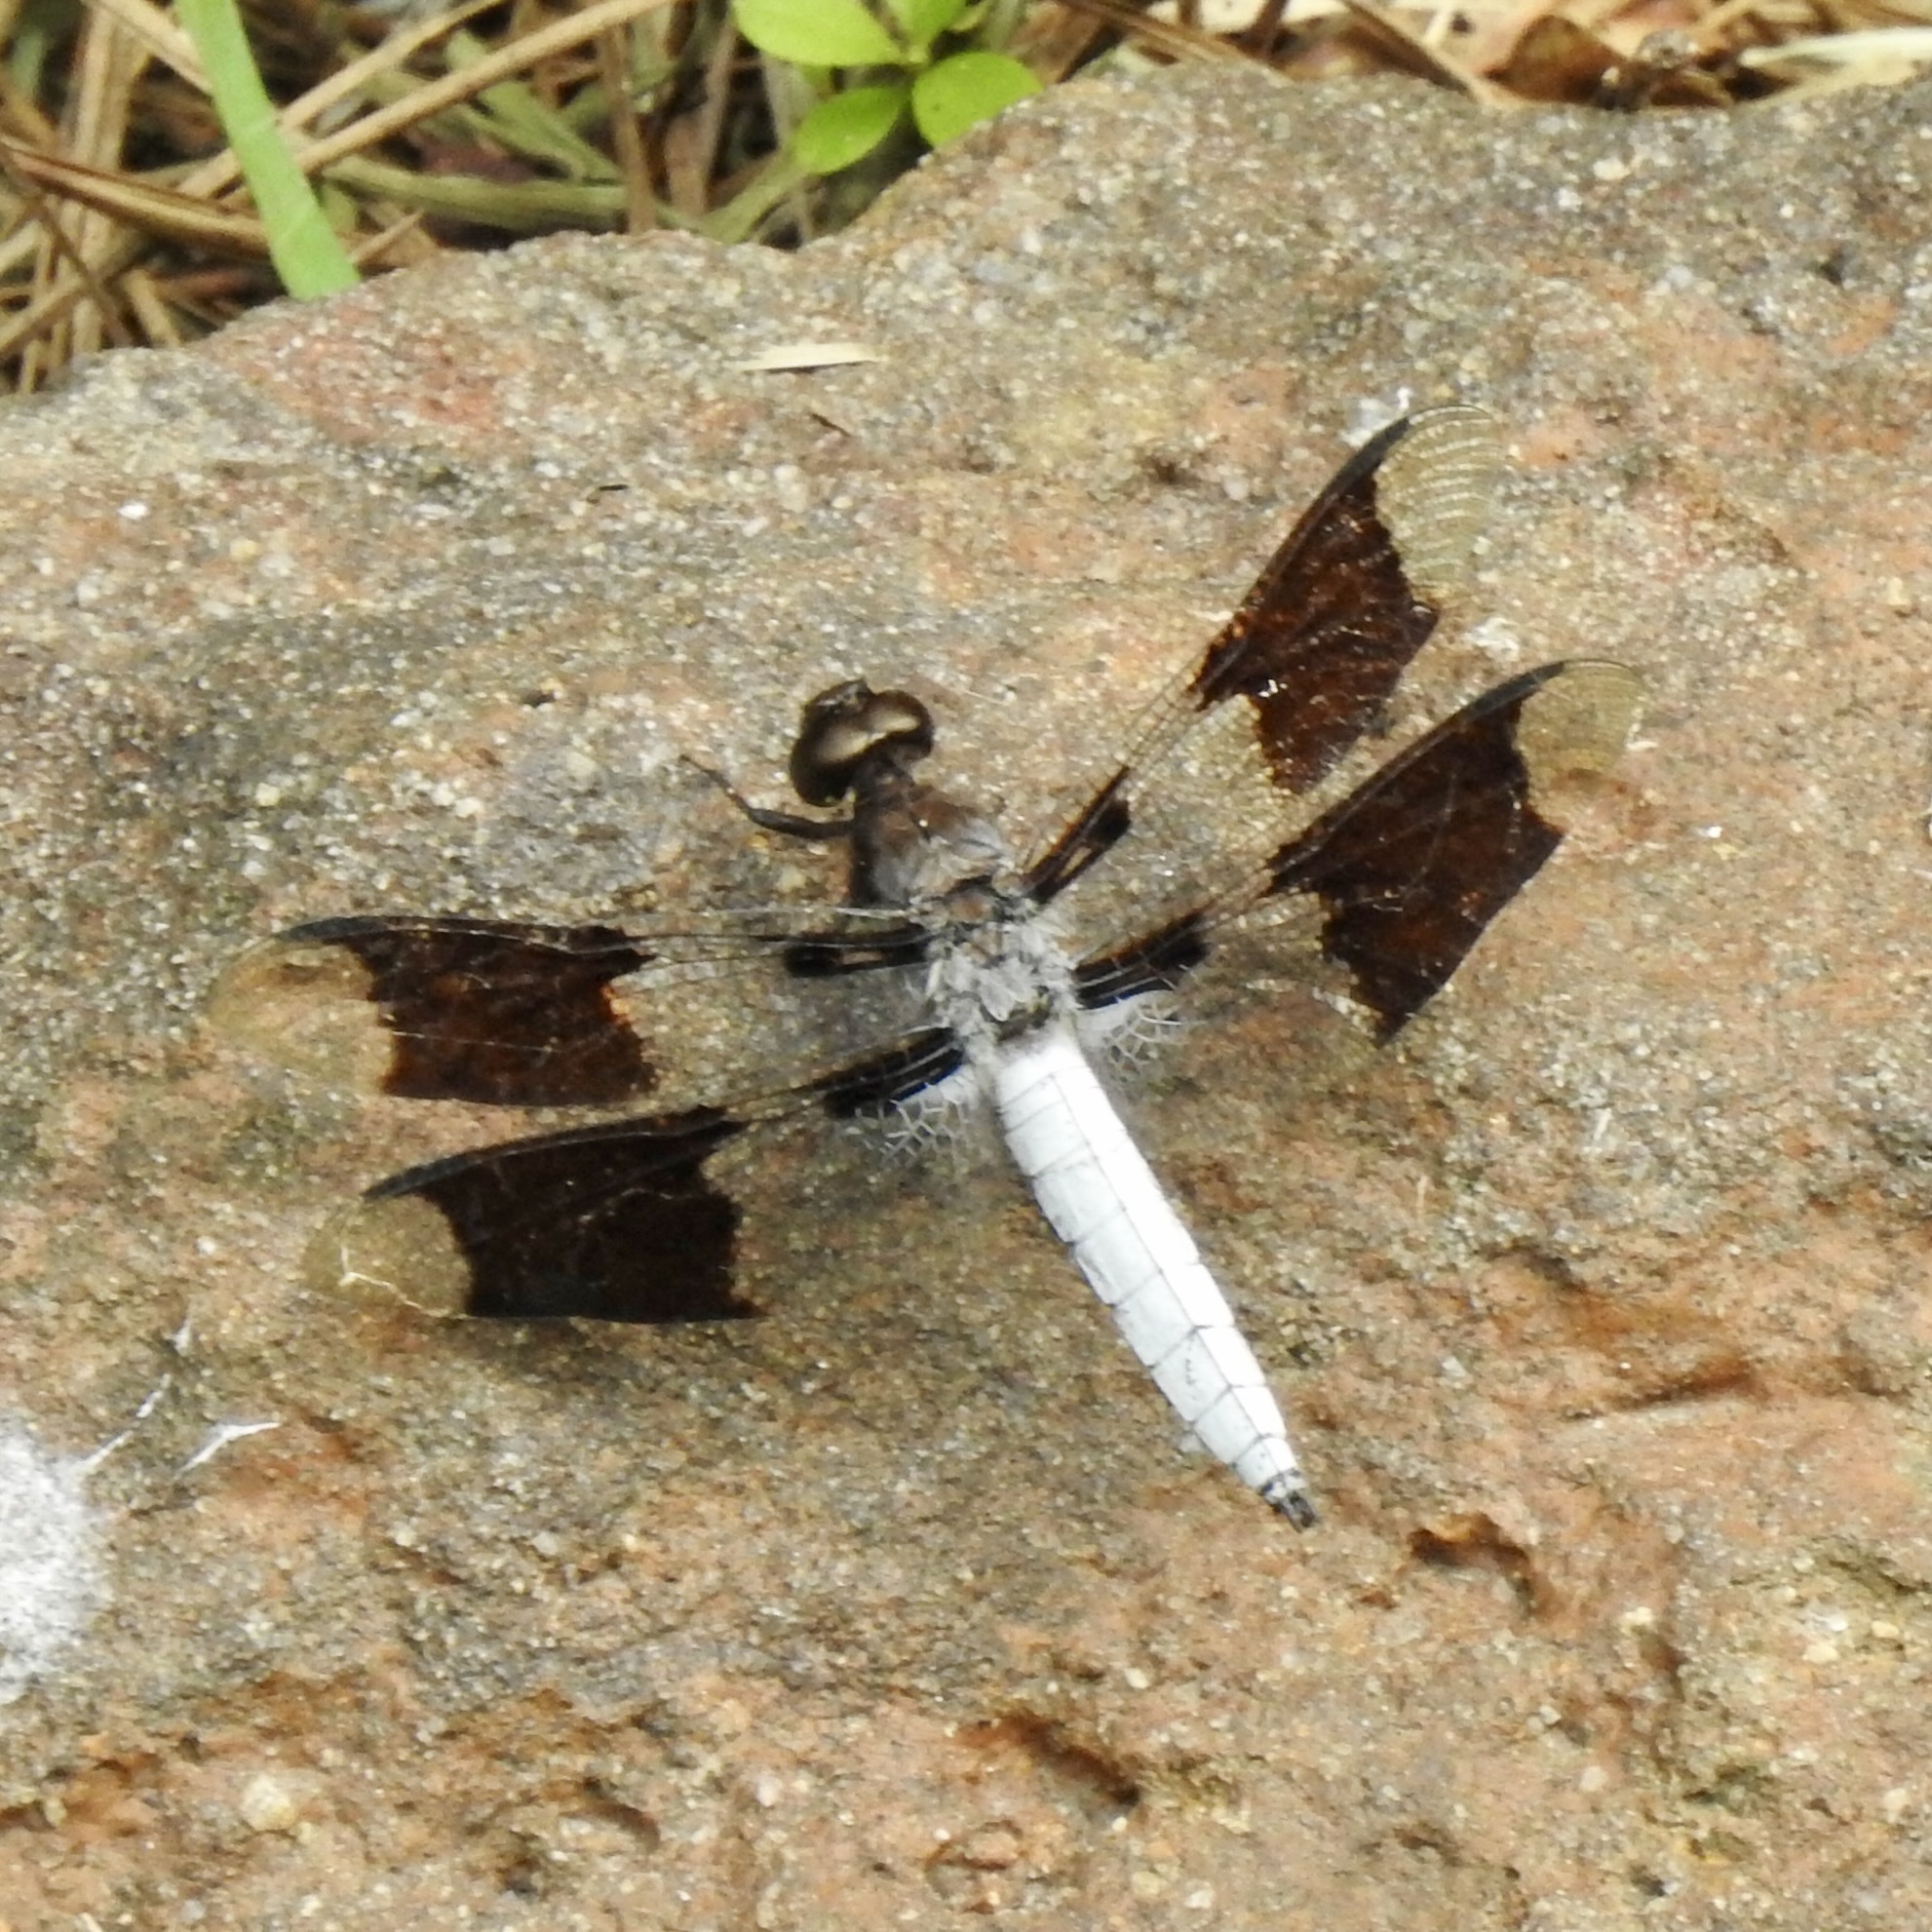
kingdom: Animalia
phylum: Arthropoda
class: Insecta
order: Odonata
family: Libellulidae
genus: Plathemis
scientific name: Plathemis lydia
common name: Common whitetail
